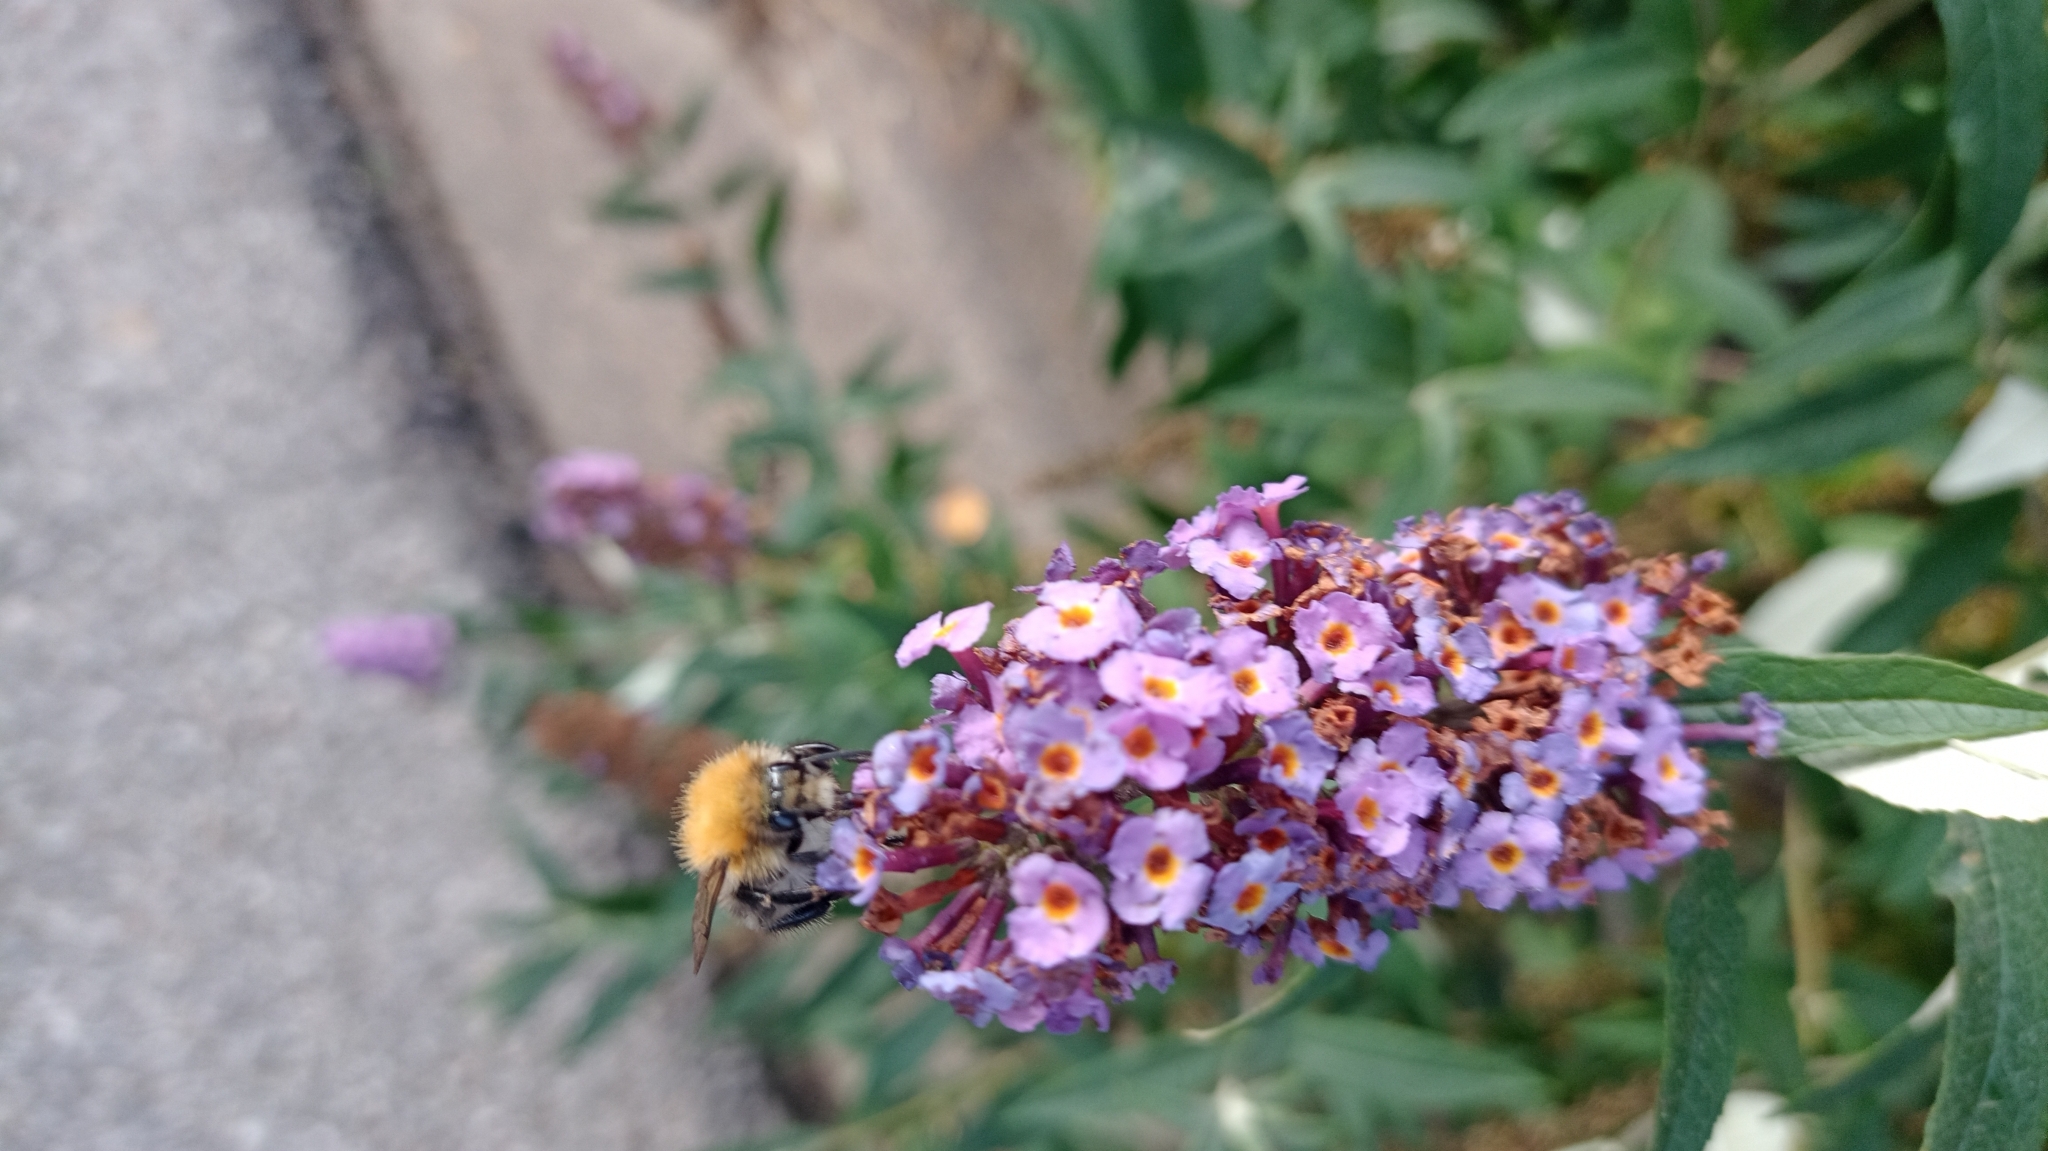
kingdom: Animalia
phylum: Arthropoda
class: Insecta
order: Hymenoptera
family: Apidae
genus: Bombus
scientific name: Bombus pascuorum
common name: Common carder bee
